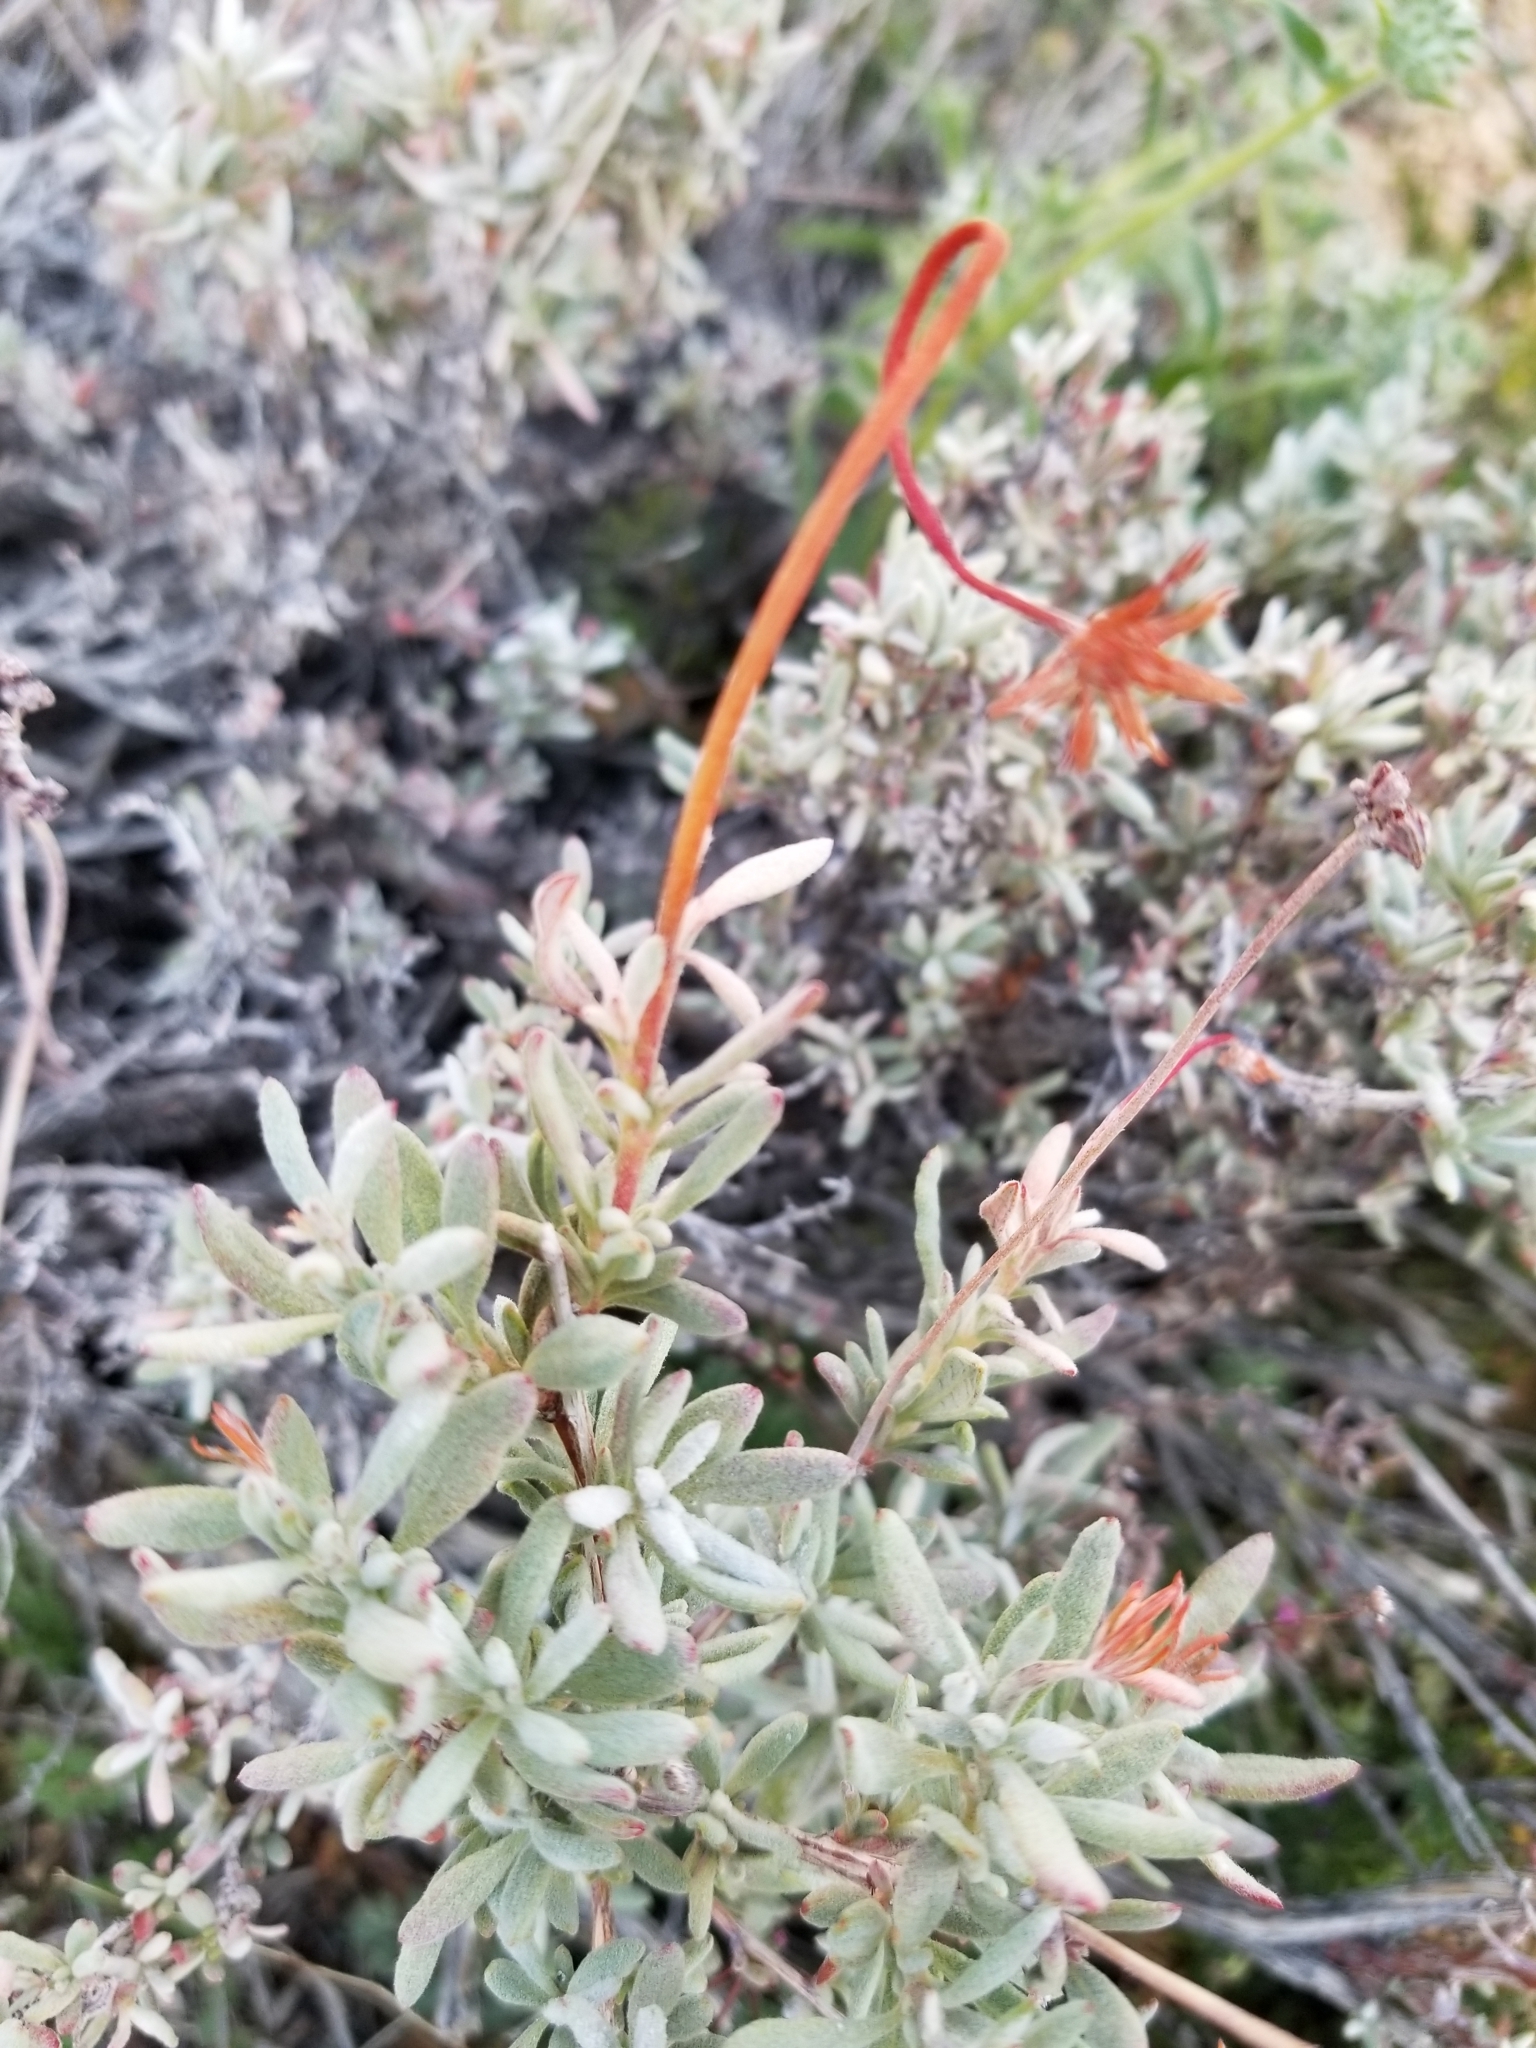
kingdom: Plantae
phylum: Tracheophyta
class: Magnoliopsida
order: Caryophyllales
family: Polygonaceae
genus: Eriogonum
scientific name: Eriogonum fasciculatum
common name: California wild buckwheat
